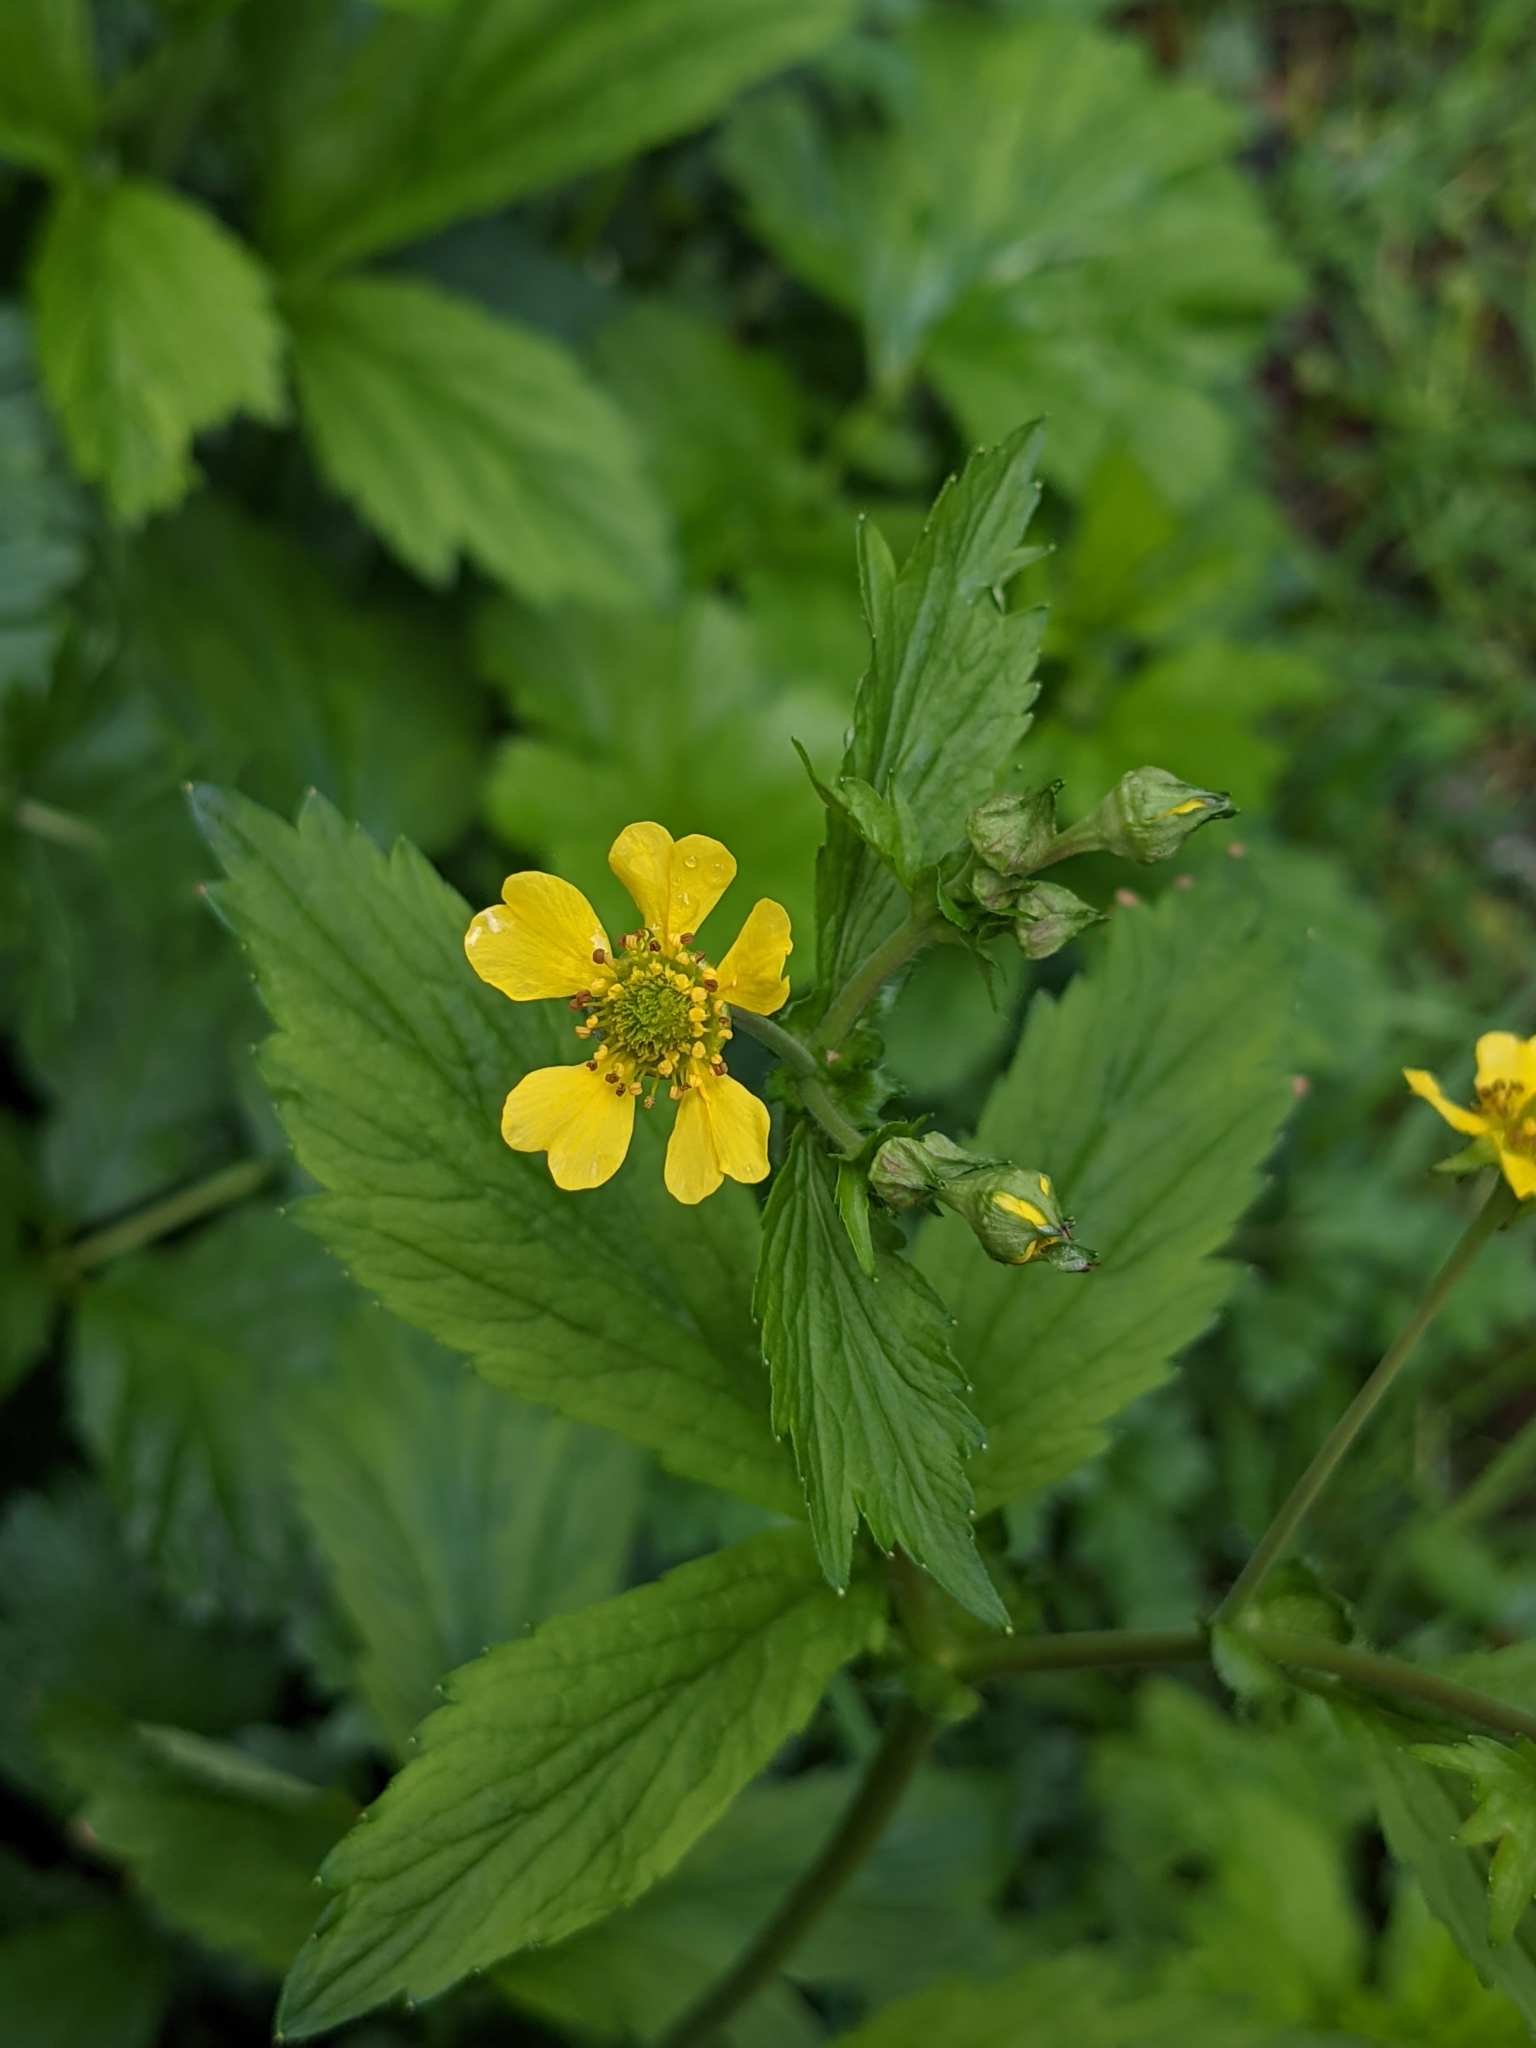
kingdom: Plantae
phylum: Tracheophyta
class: Magnoliopsida
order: Rosales
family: Rosaceae
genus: Geum
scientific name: Geum macrophyllum
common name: Large-leaved avens
